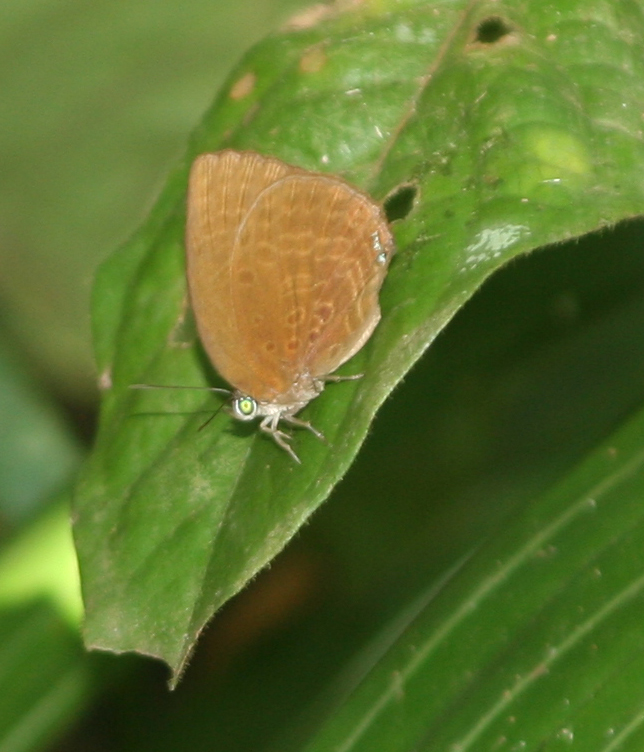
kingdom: Animalia
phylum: Arthropoda
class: Insecta
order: Lepidoptera
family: Lycaenidae
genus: Arhopala
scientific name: Arhopala moolaina
